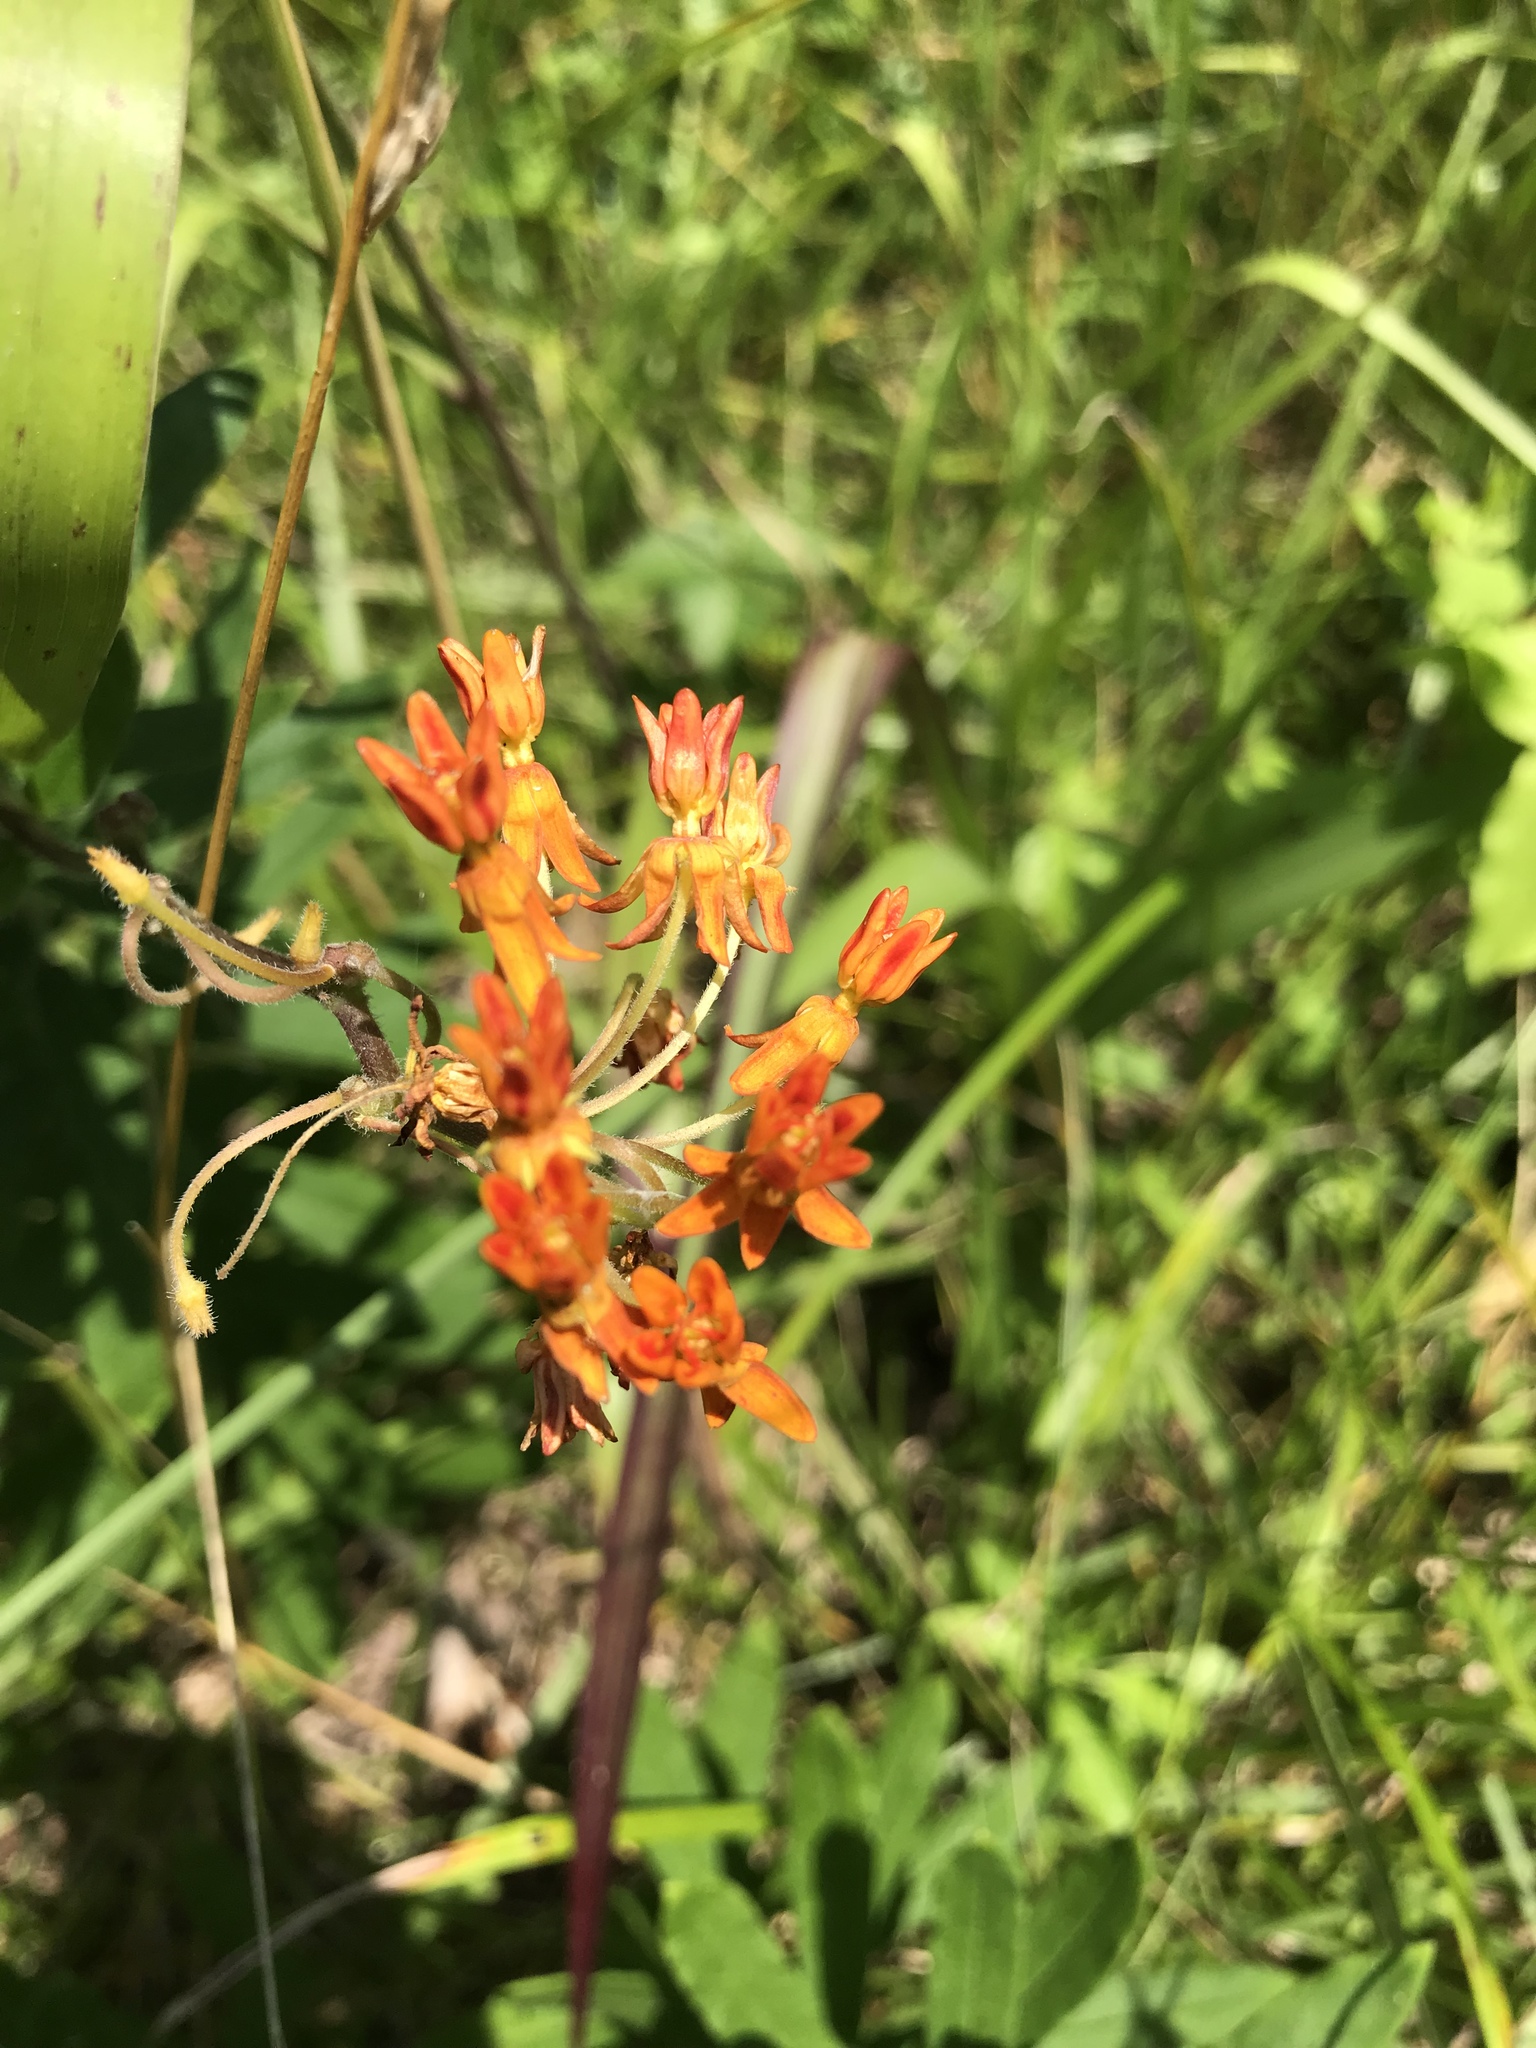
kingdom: Plantae
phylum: Tracheophyta
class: Magnoliopsida
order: Gentianales
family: Apocynaceae
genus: Asclepias
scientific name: Asclepias tuberosa
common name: Butterfly milkweed
